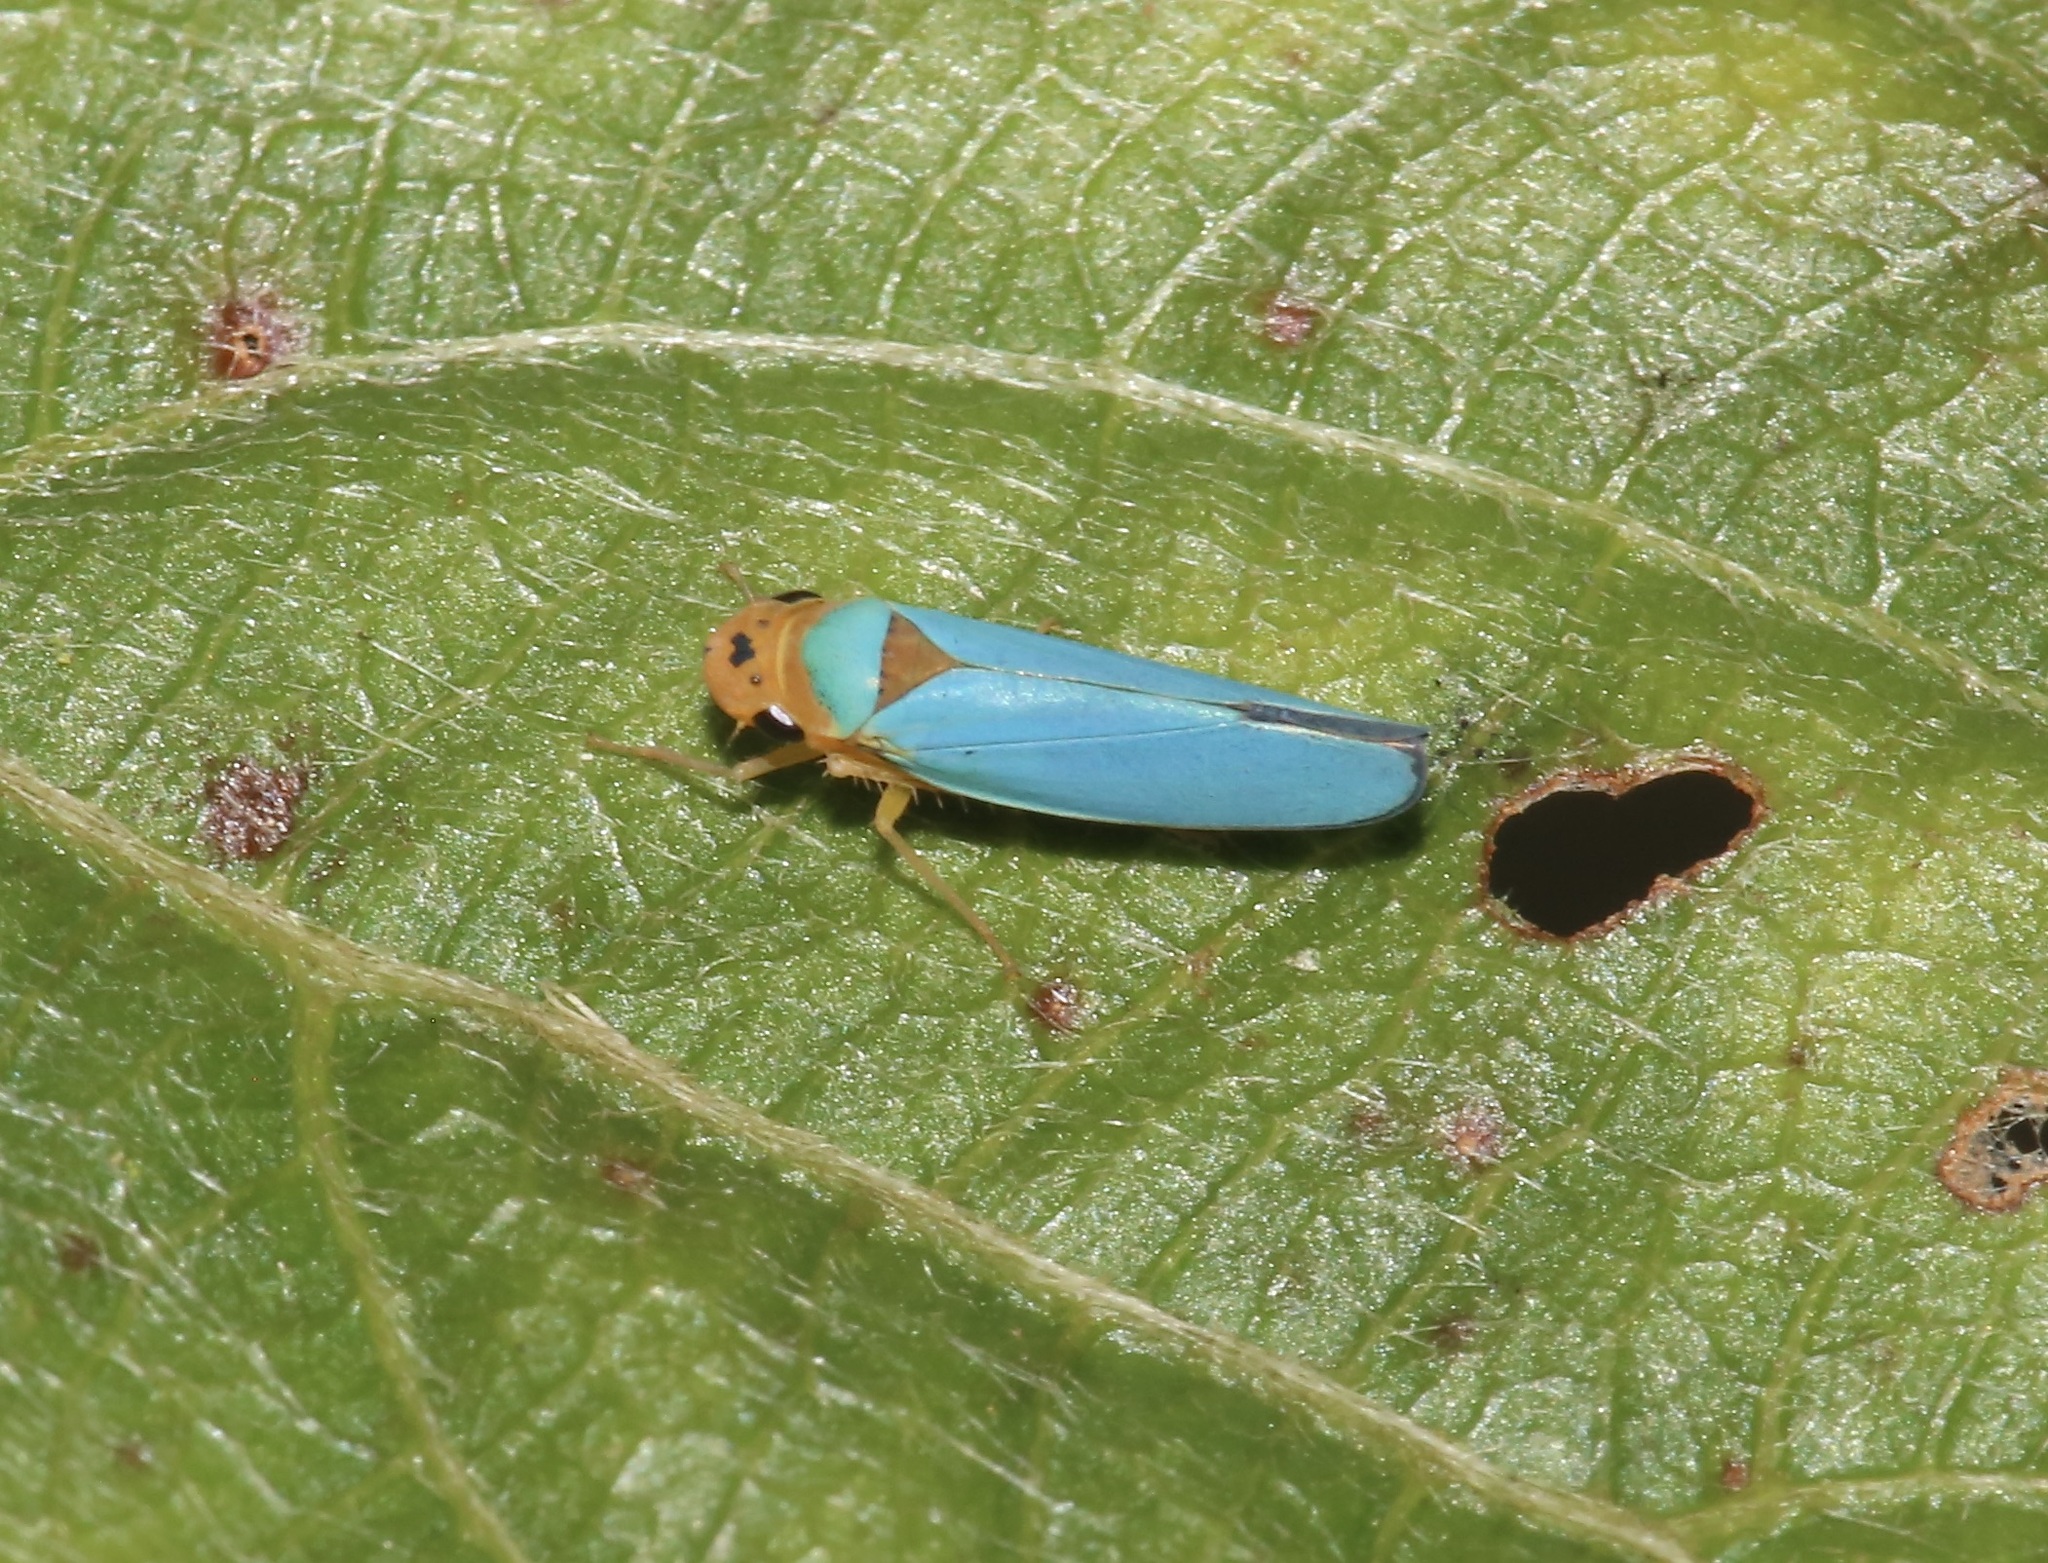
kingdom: Animalia
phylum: Arthropoda
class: Insecta
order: Hemiptera
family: Cicadellidae
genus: Macunolla
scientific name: Macunolla ventralis
